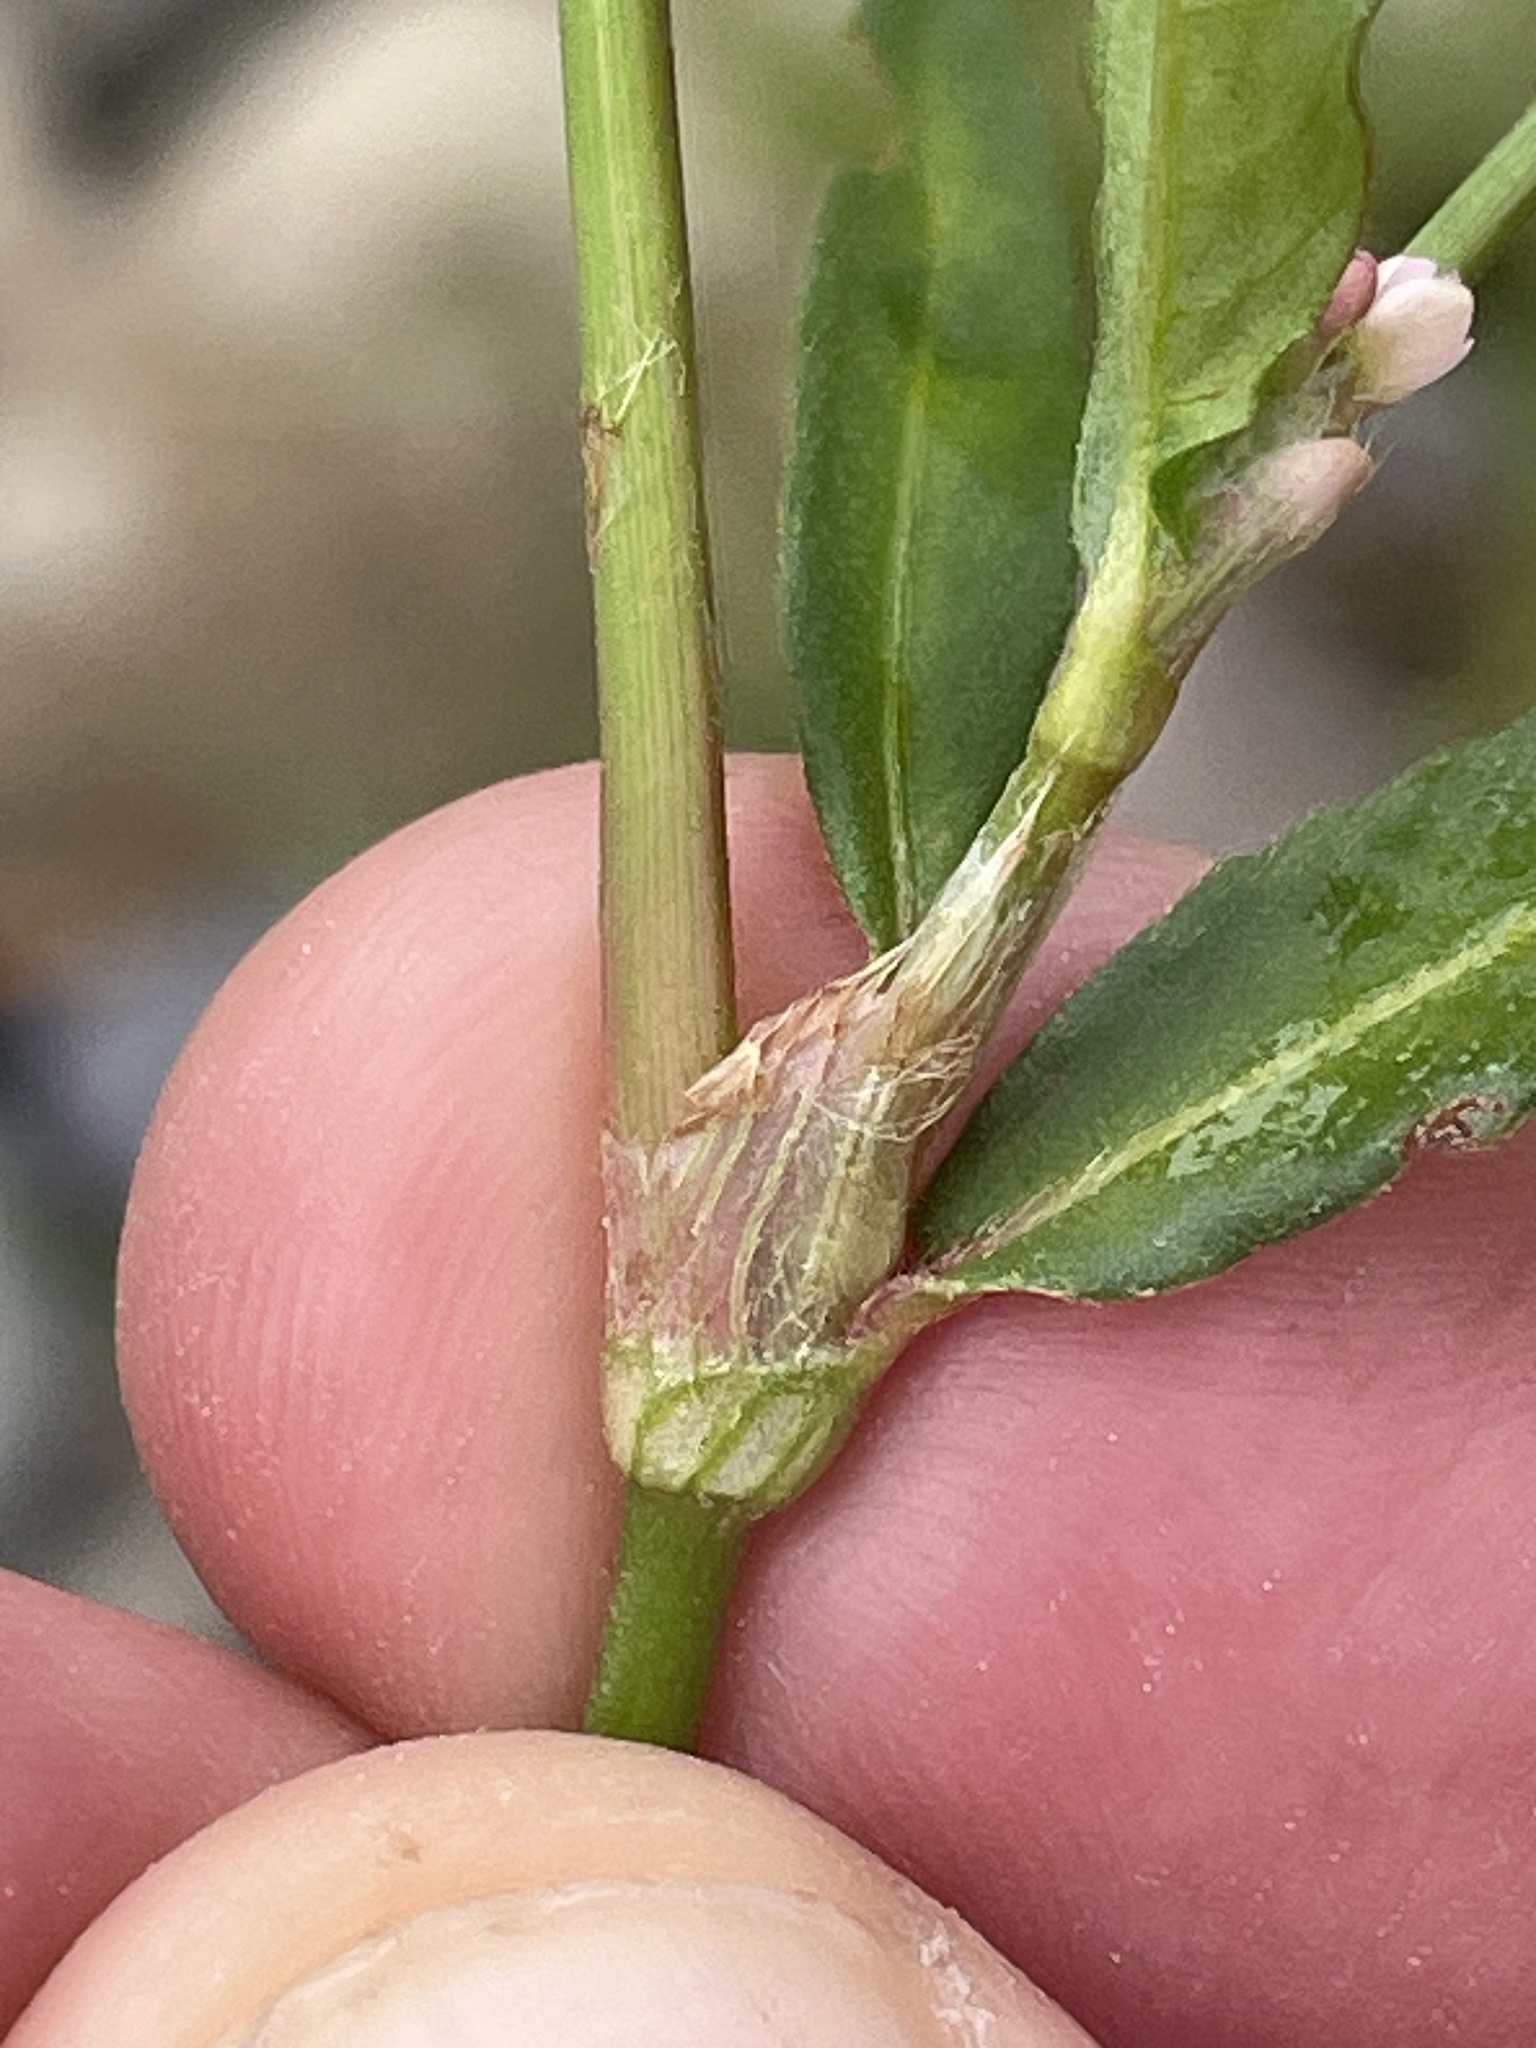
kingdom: Plantae
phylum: Tracheophyta
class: Magnoliopsida
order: Caryophyllales
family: Polygonaceae
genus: Persicaria
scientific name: Persicaria maculosa
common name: Redshank
